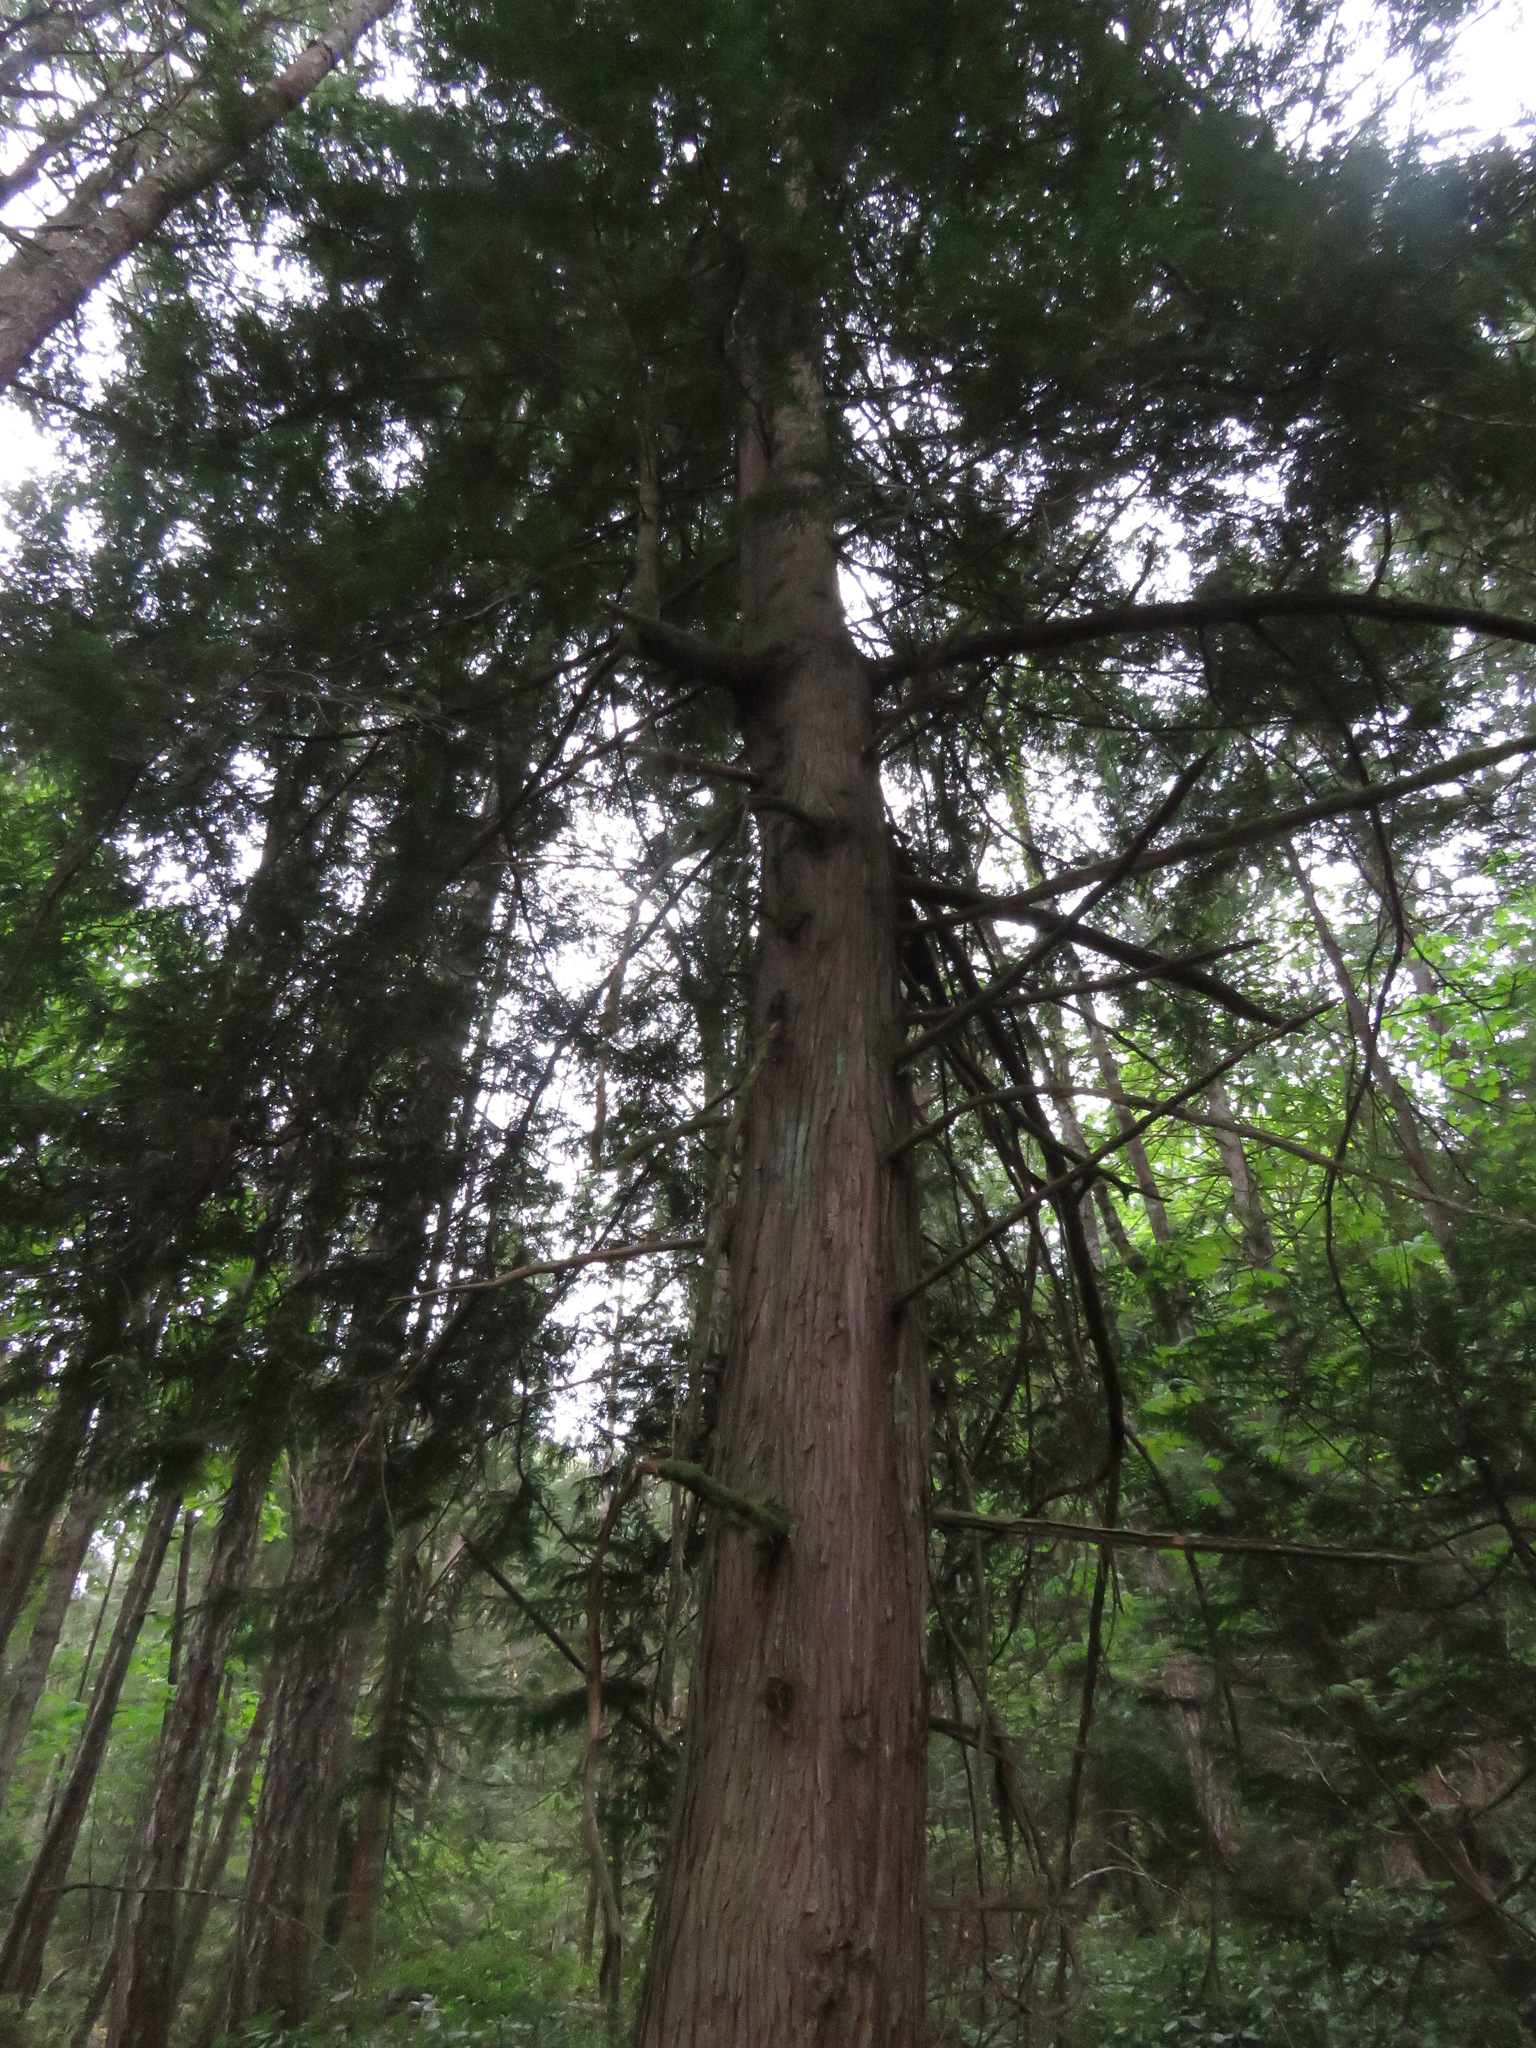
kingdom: Plantae
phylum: Tracheophyta
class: Pinopsida
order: Pinales
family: Cupressaceae
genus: Thuja
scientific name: Thuja plicata
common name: Western red-cedar
